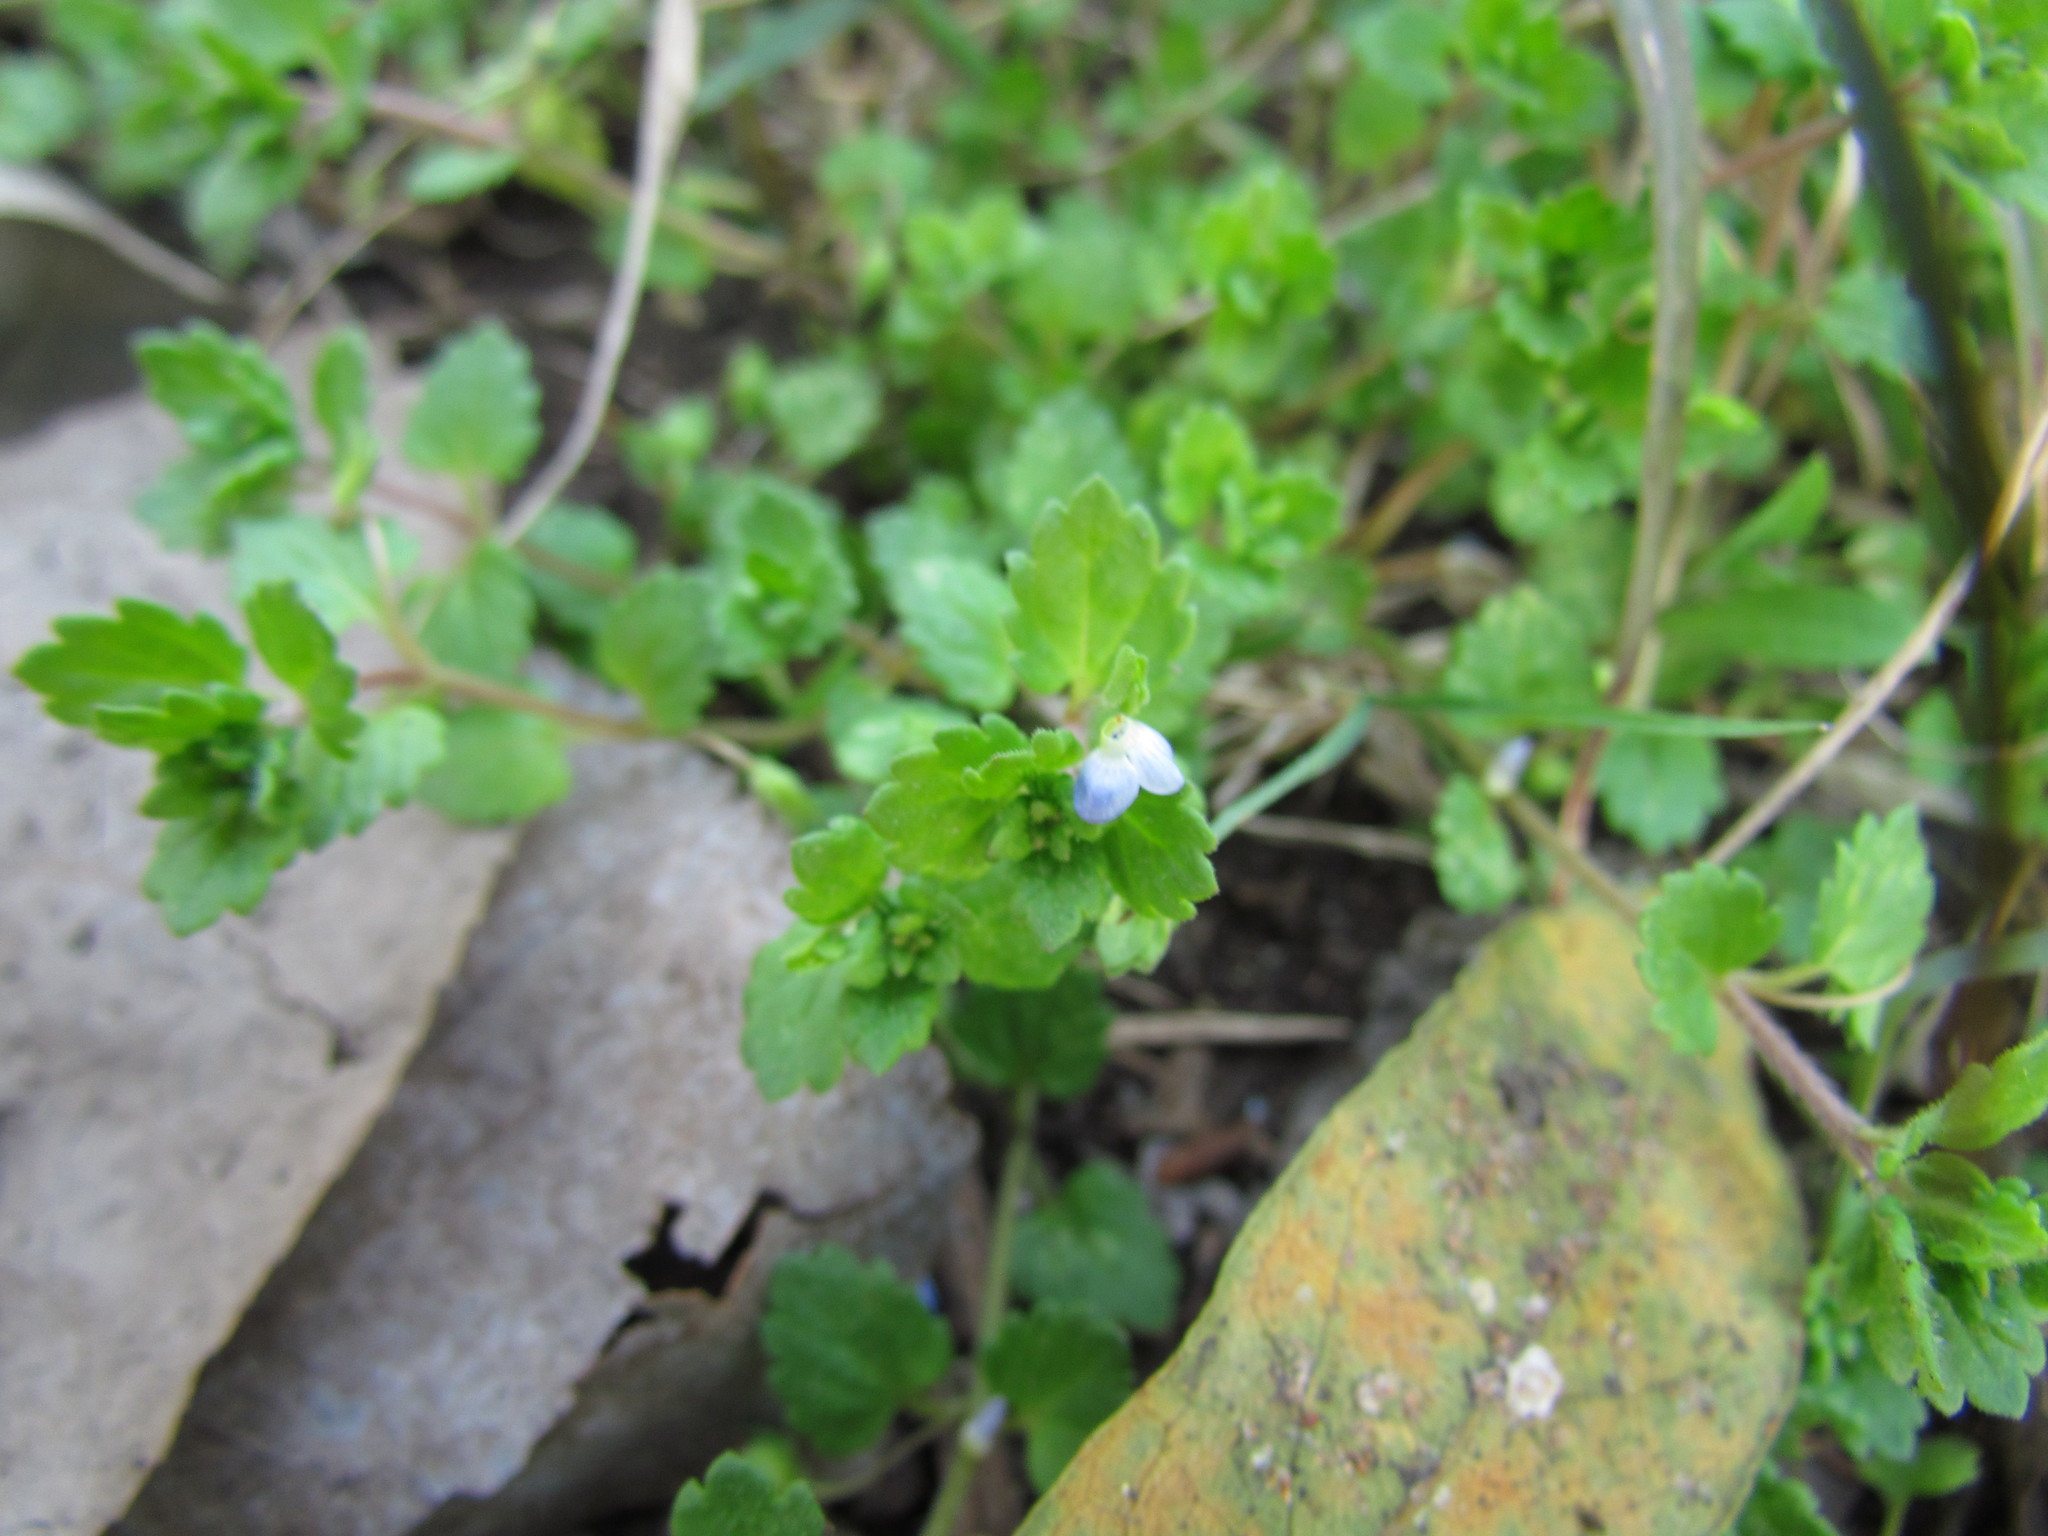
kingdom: Plantae
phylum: Tracheophyta
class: Magnoliopsida
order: Lamiales
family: Plantaginaceae
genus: Veronica
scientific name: Veronica persica
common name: Common field-speedwell
